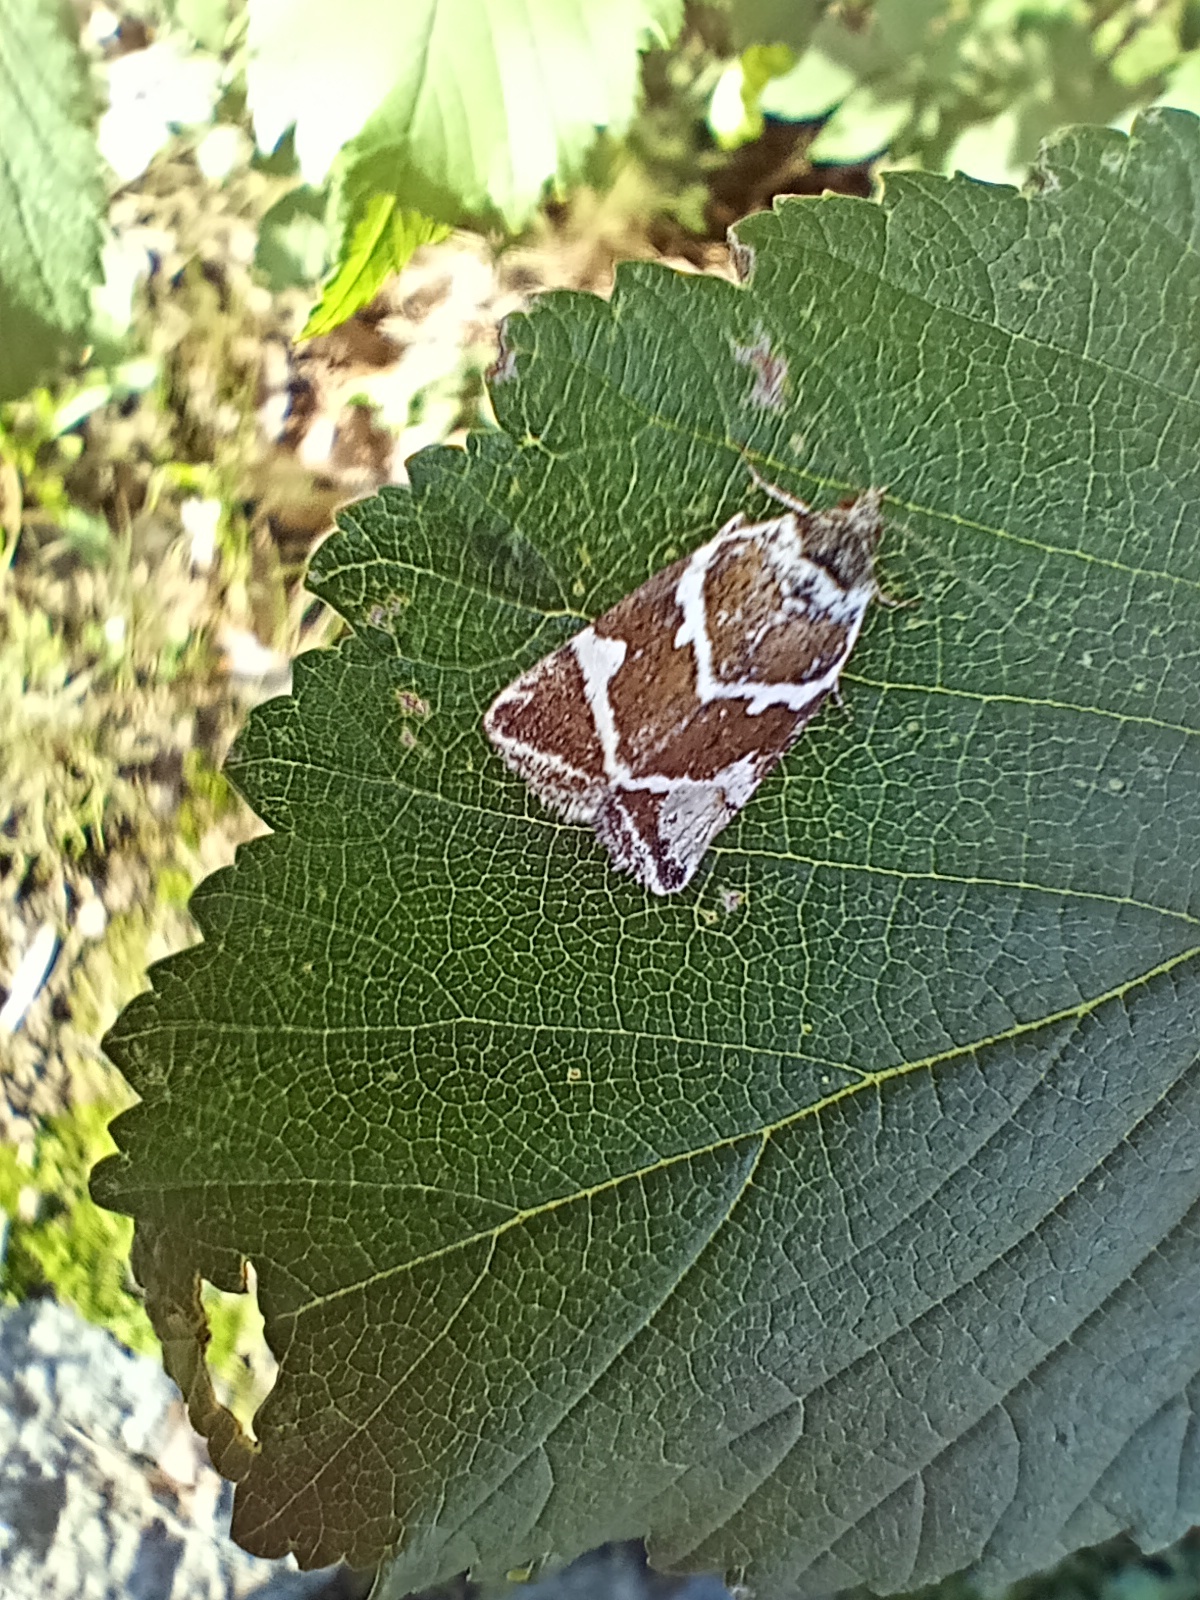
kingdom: Animalia
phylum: Arthropoda
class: Insecta
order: Lepidoptera
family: Noctuidae
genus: Deltote
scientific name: Deltote bankiana
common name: Silver barred
